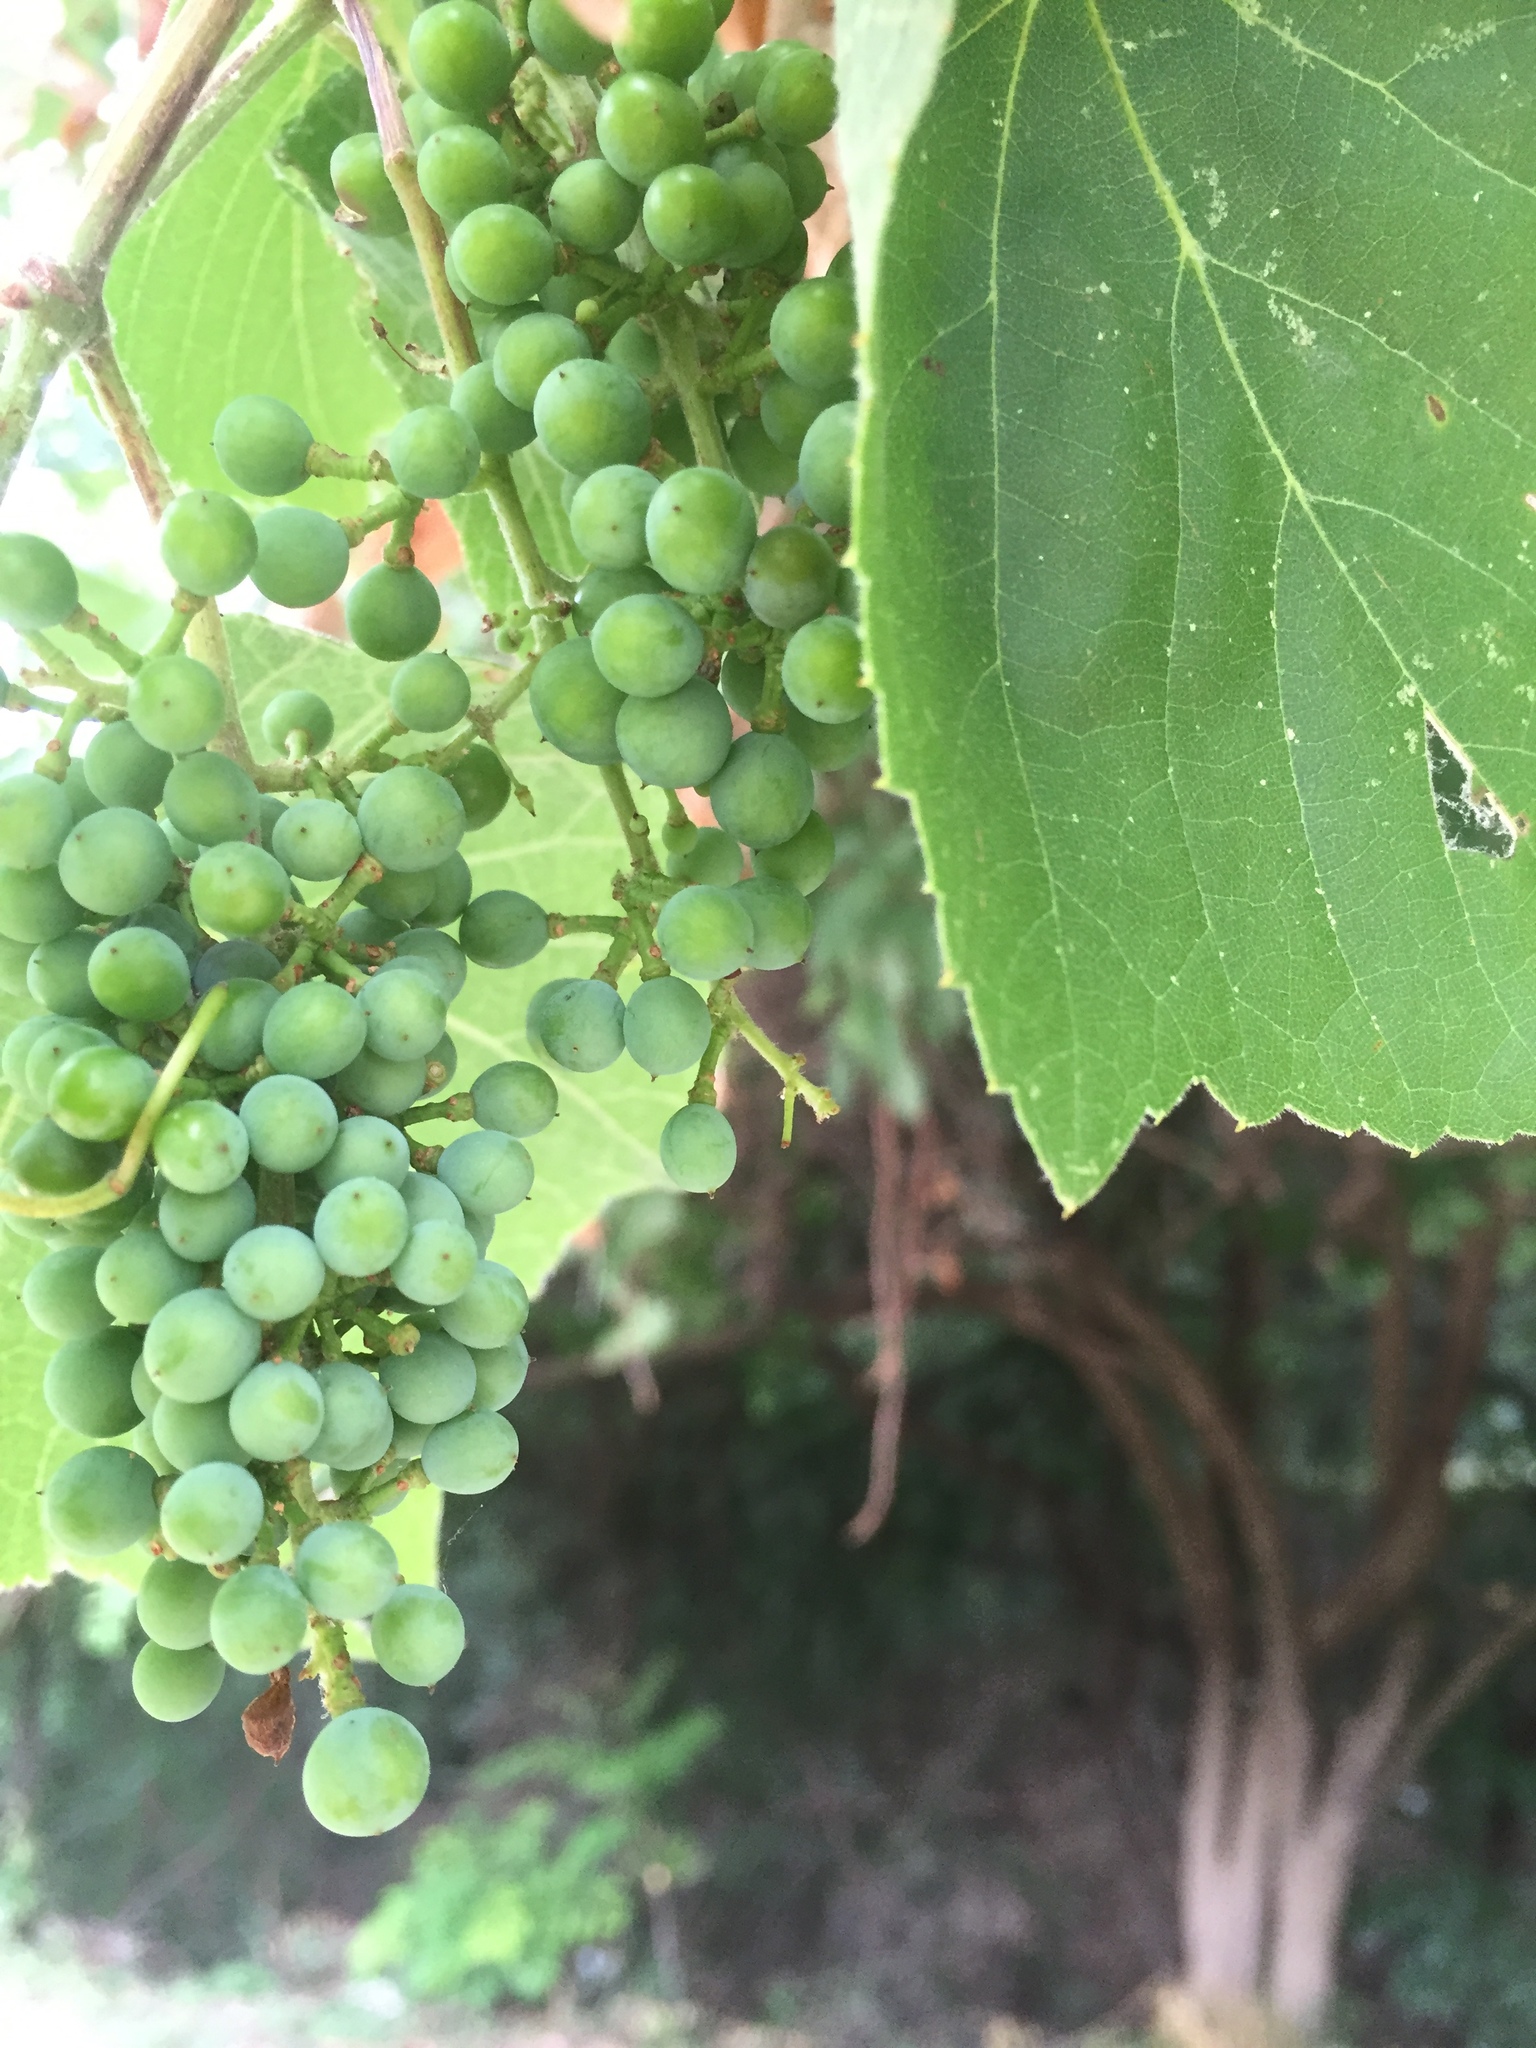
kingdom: Plantae
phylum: Tracheophyta
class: Magnoliopsida
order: Vitales
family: Vitaceae
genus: Cissus
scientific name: Cissus verticillata
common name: Princess vine
